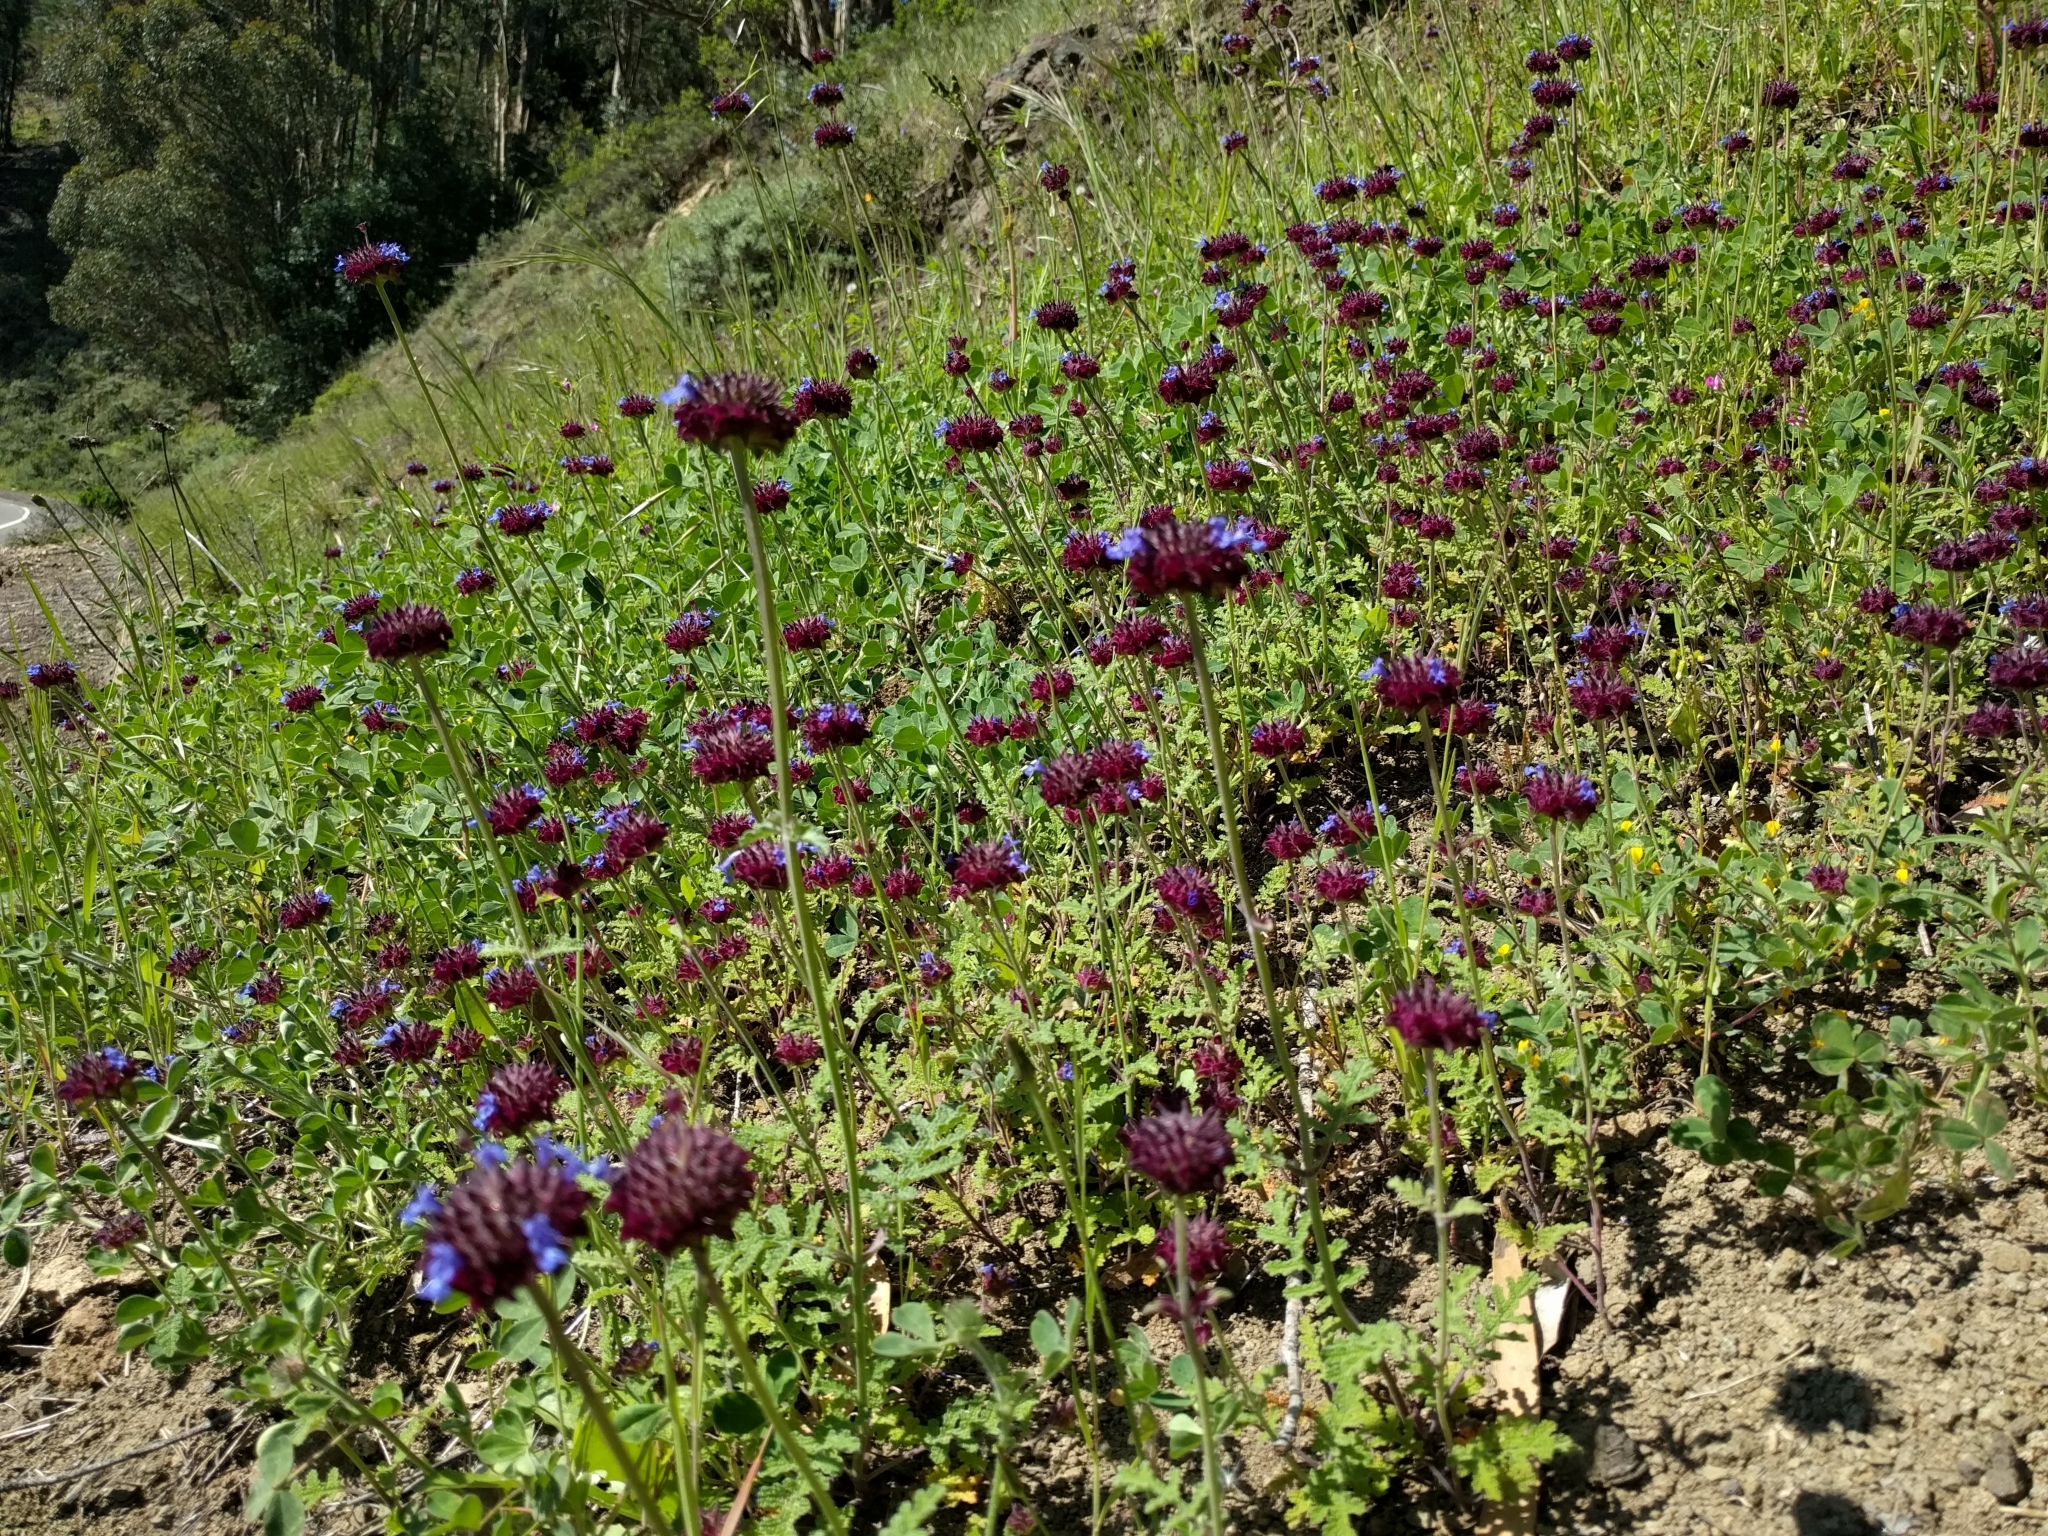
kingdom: Plantae
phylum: Tracheophyta
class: Magnoliopsida
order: Lamiales
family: Lamiaceae
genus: Salvia
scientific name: Salvia columbariae
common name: Chia
